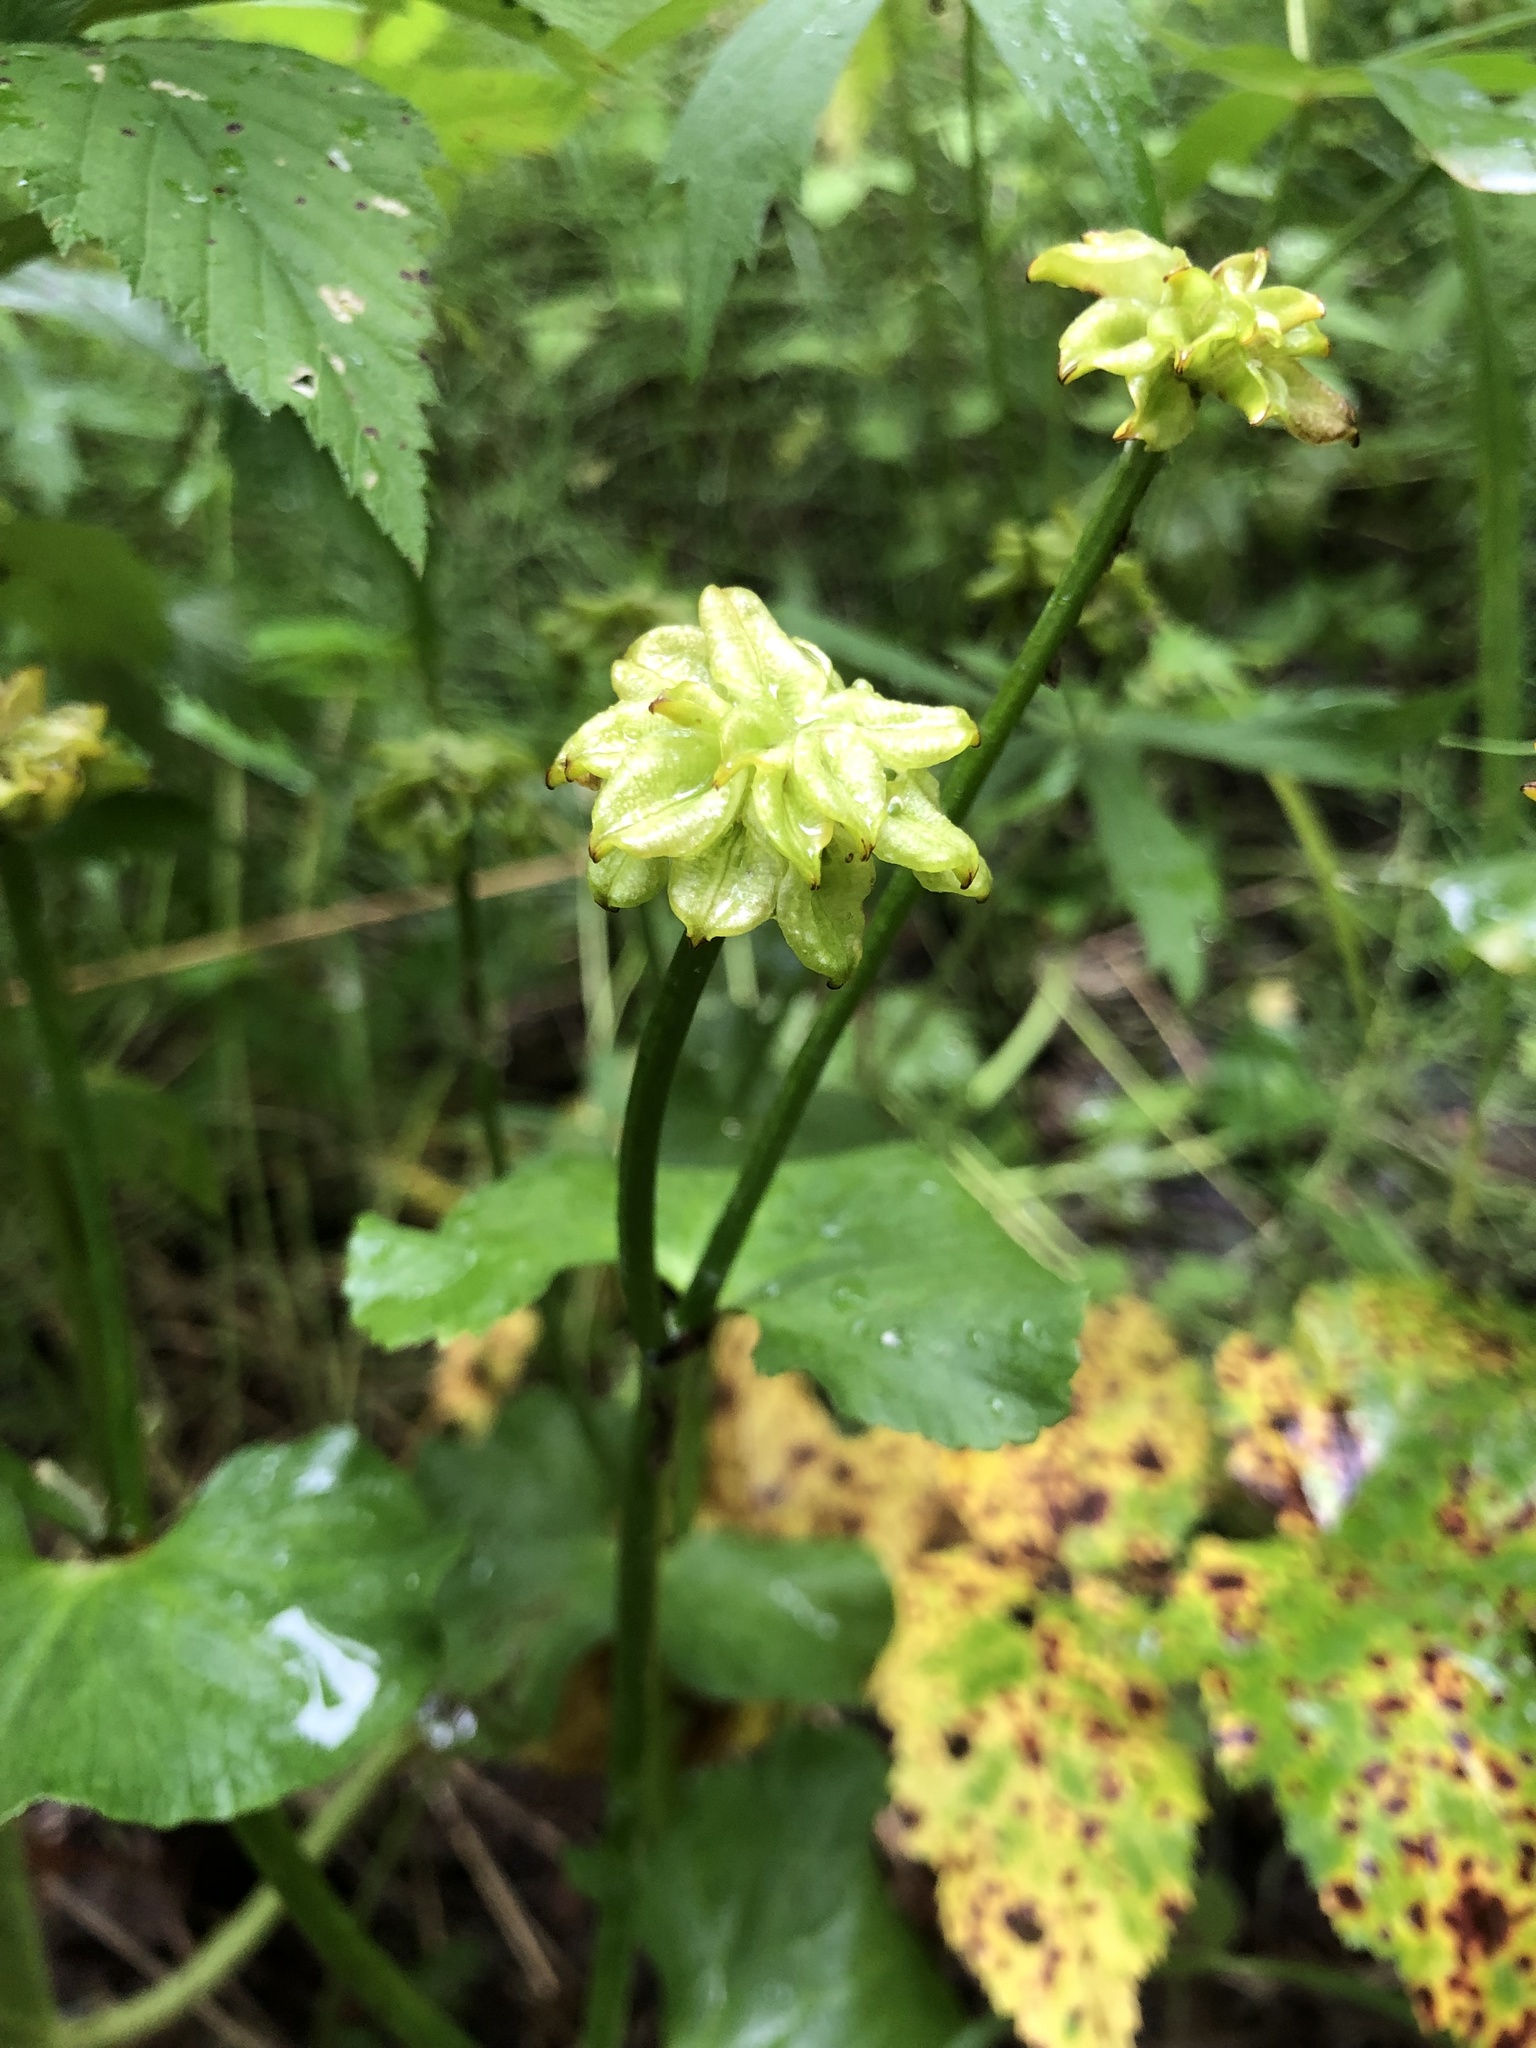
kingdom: Plantae
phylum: Tracheophyta
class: Magnoliopsida
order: Ranunculales
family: Ranunculaceae
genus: Caltha
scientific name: Caltha palustris
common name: Marsh marigold
